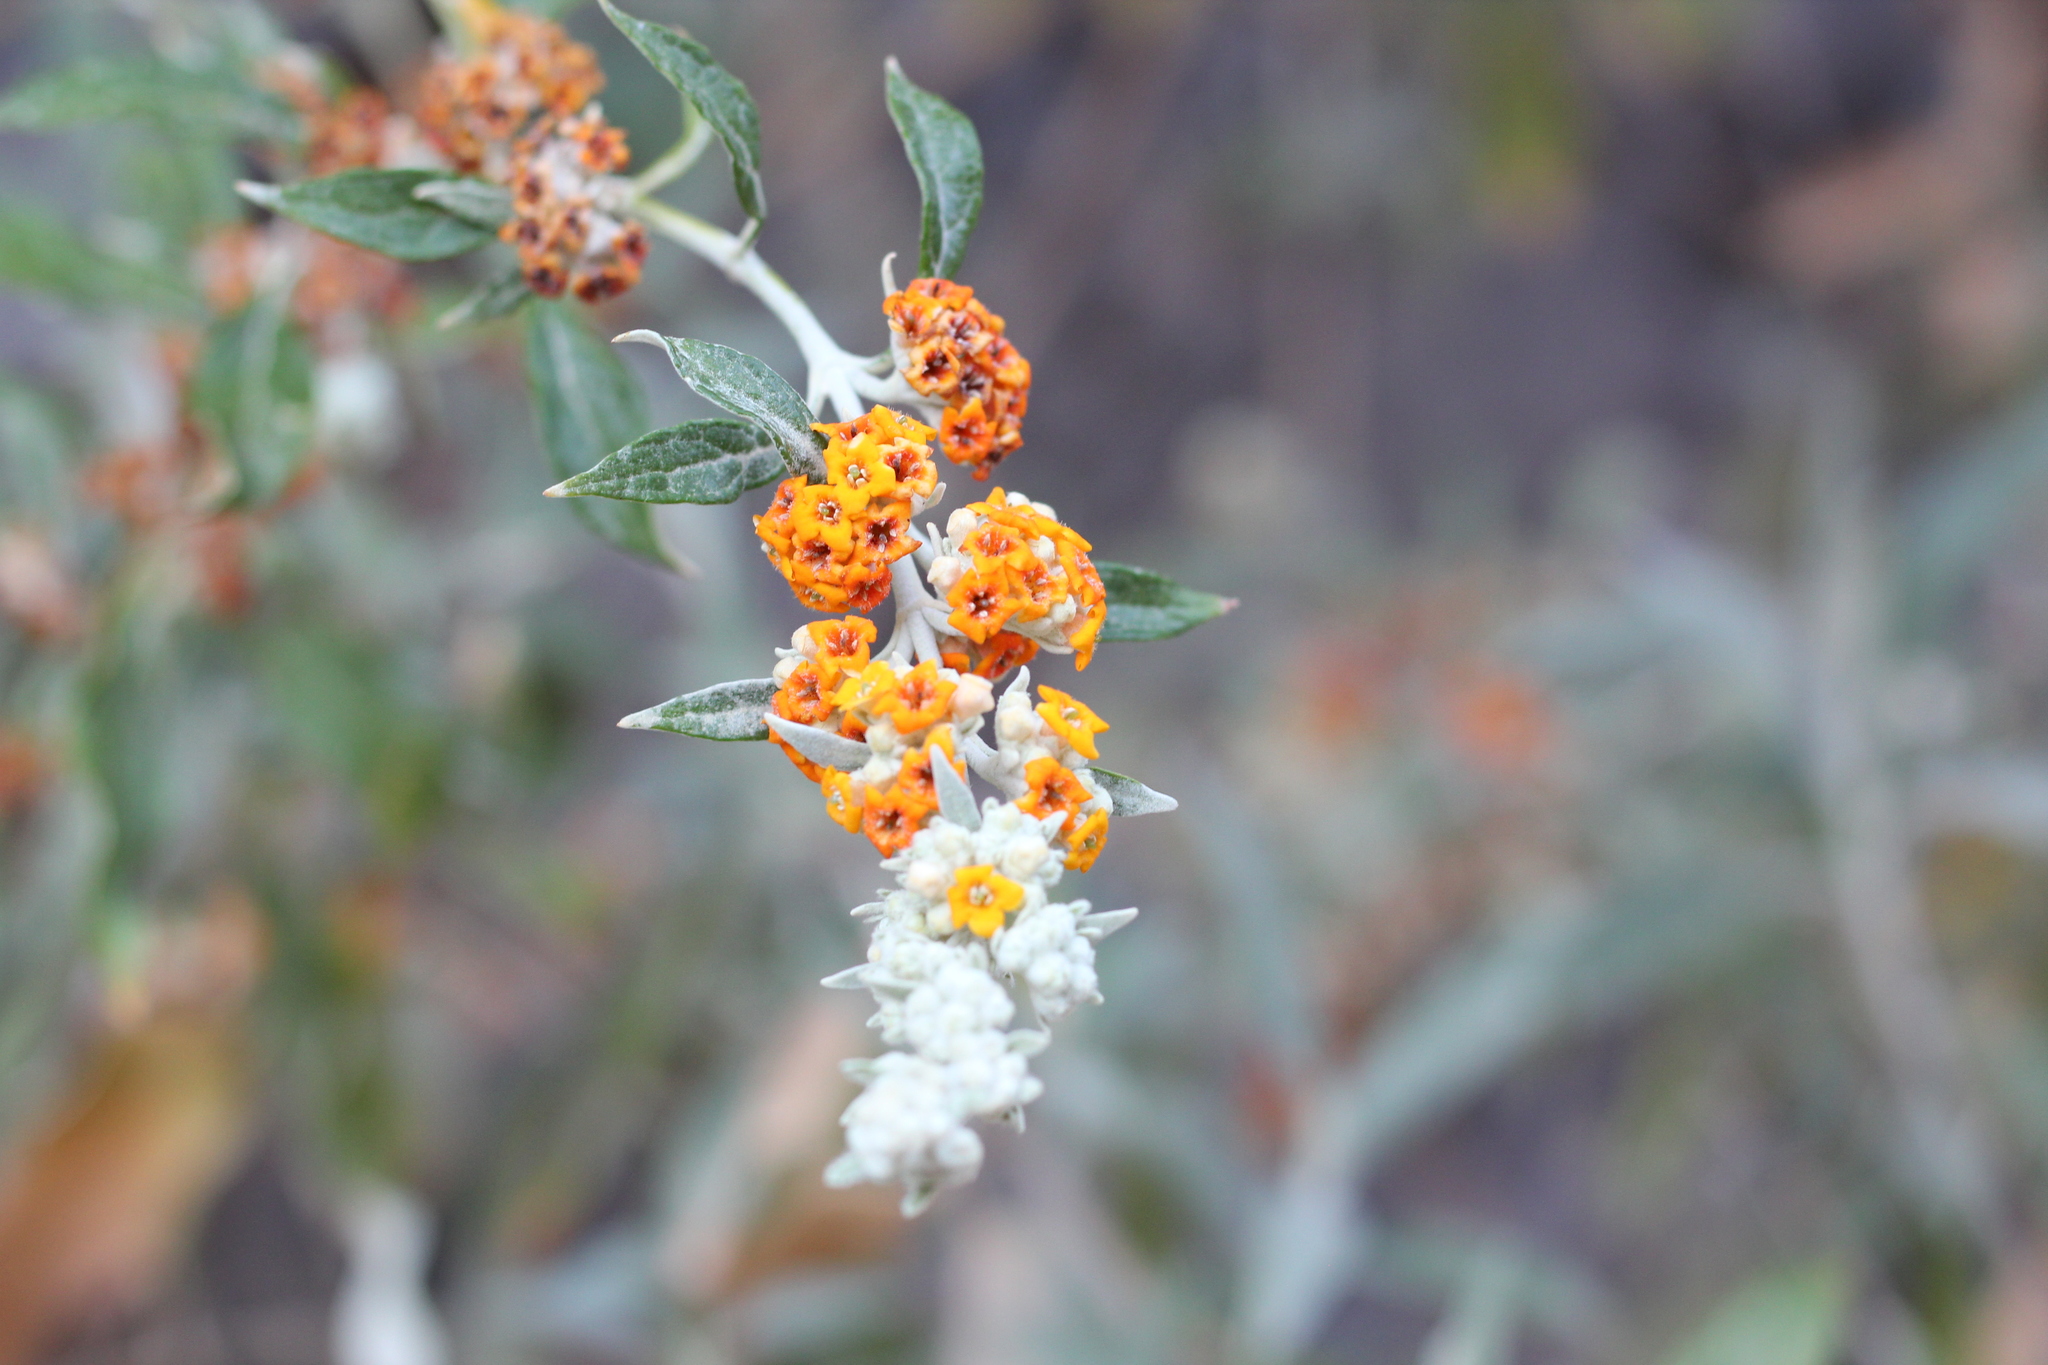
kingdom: Plantae
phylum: Tracheophyta
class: Magnoliopsida
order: Lamiales
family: Scrophulariaceae
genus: Buddleja
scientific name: Buddleja tucumanensis
